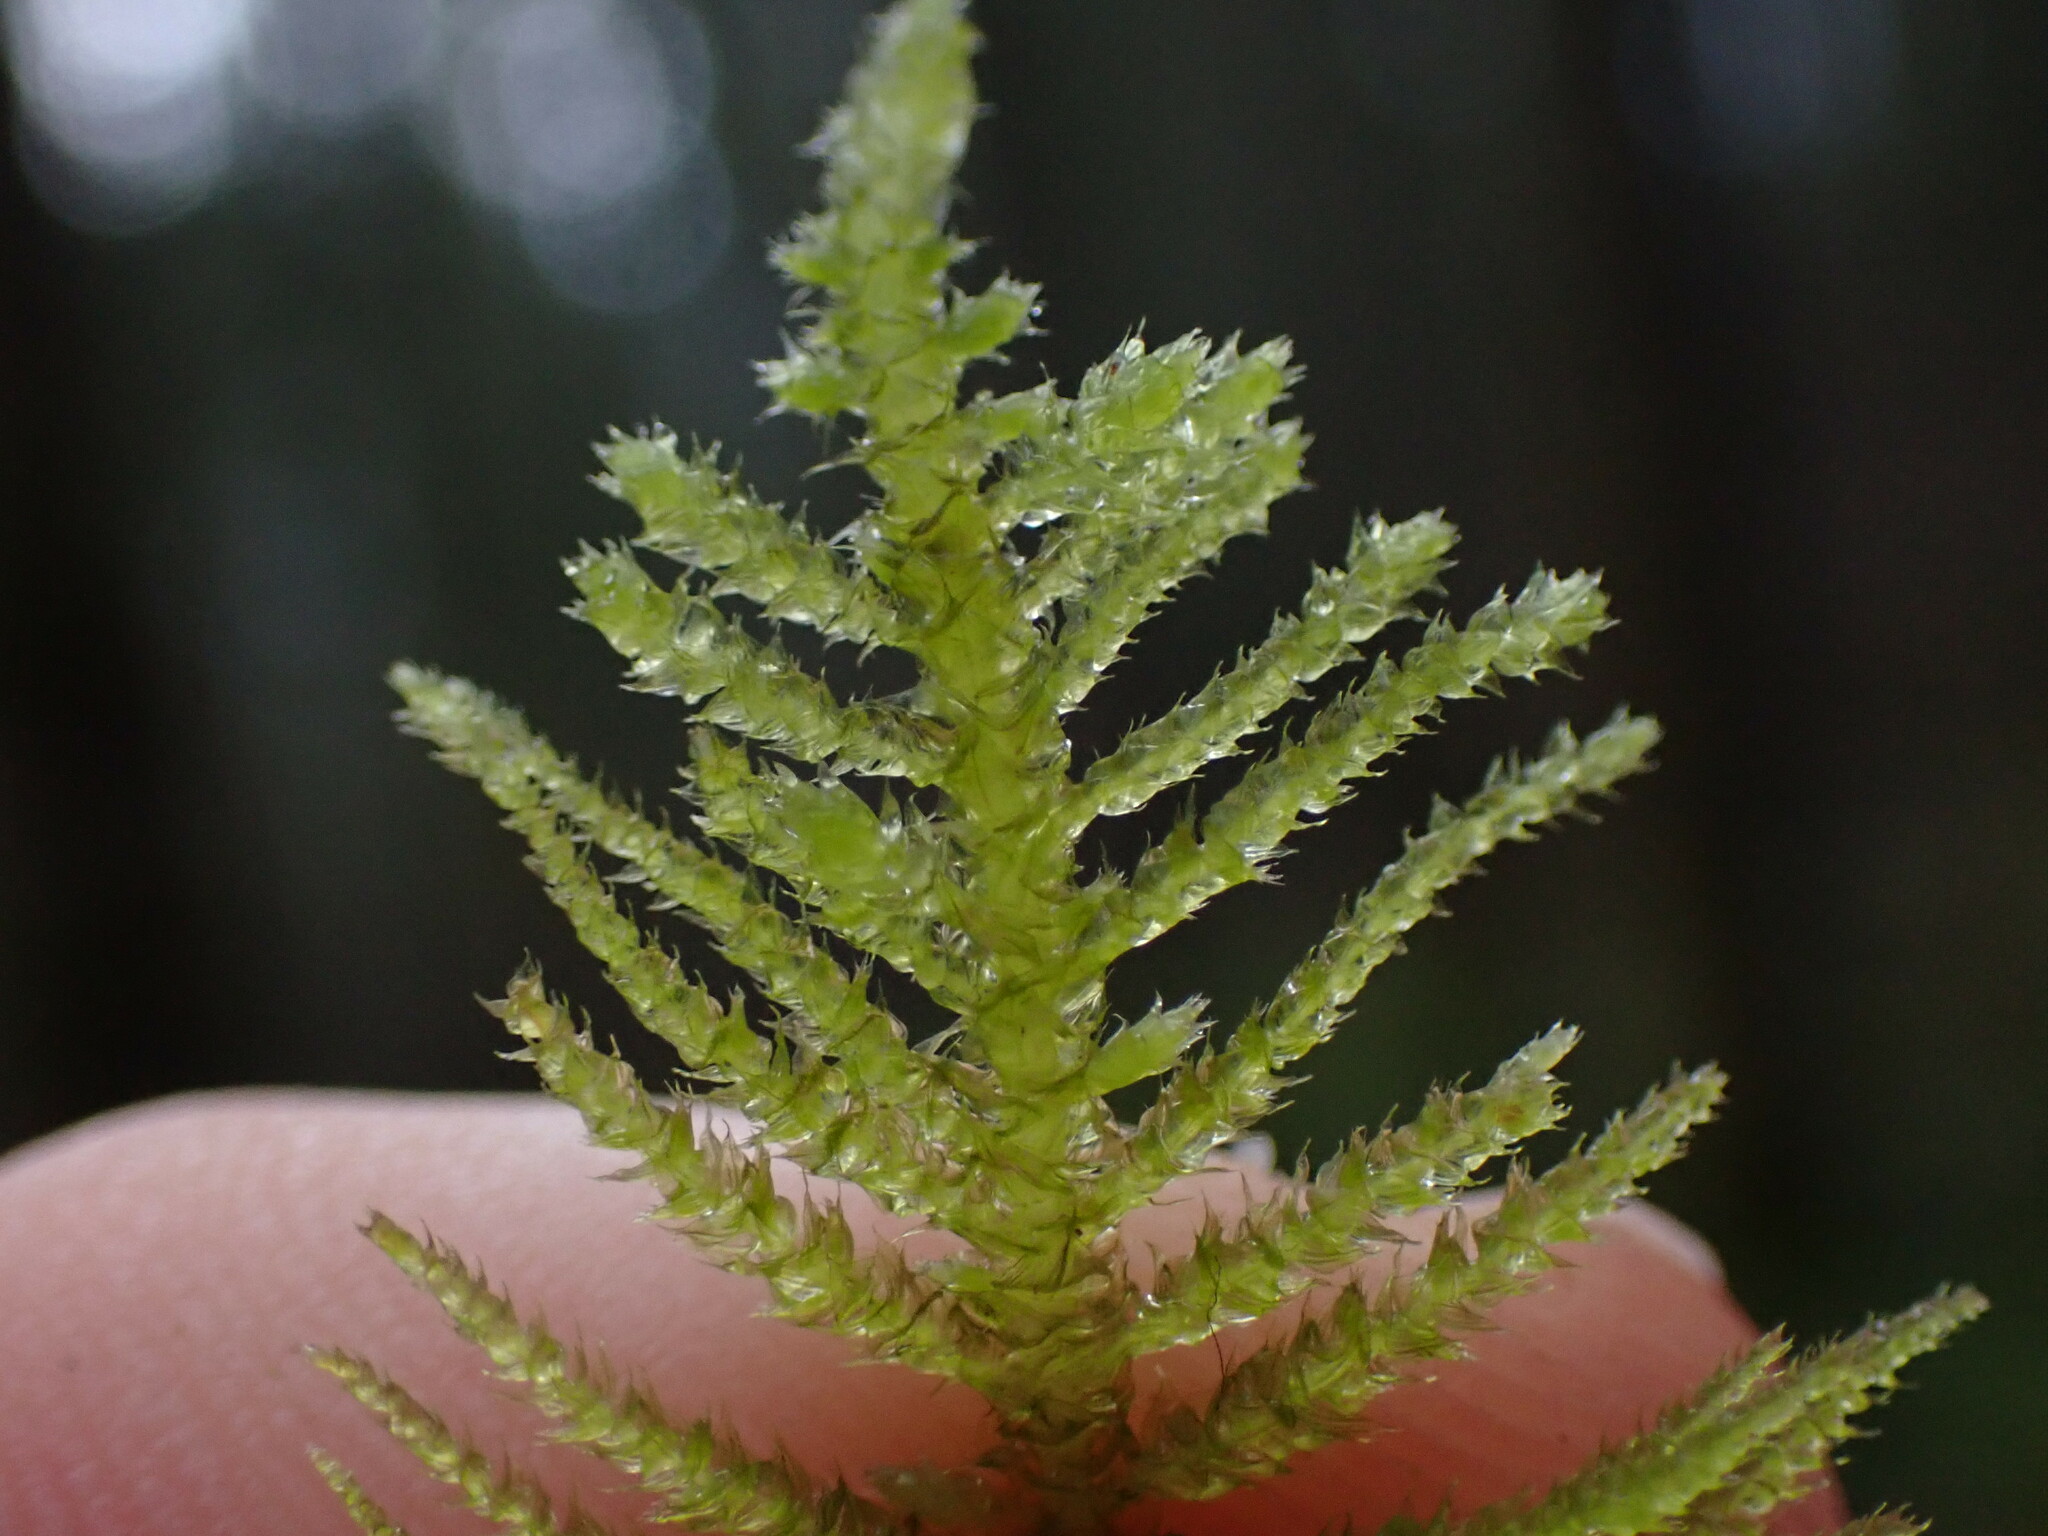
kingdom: Plantae
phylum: Bryophyta
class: Bryopsida
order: Hypnales
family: Brachytheciaceae
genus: Kindbergia
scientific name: Kindbergia oregana
